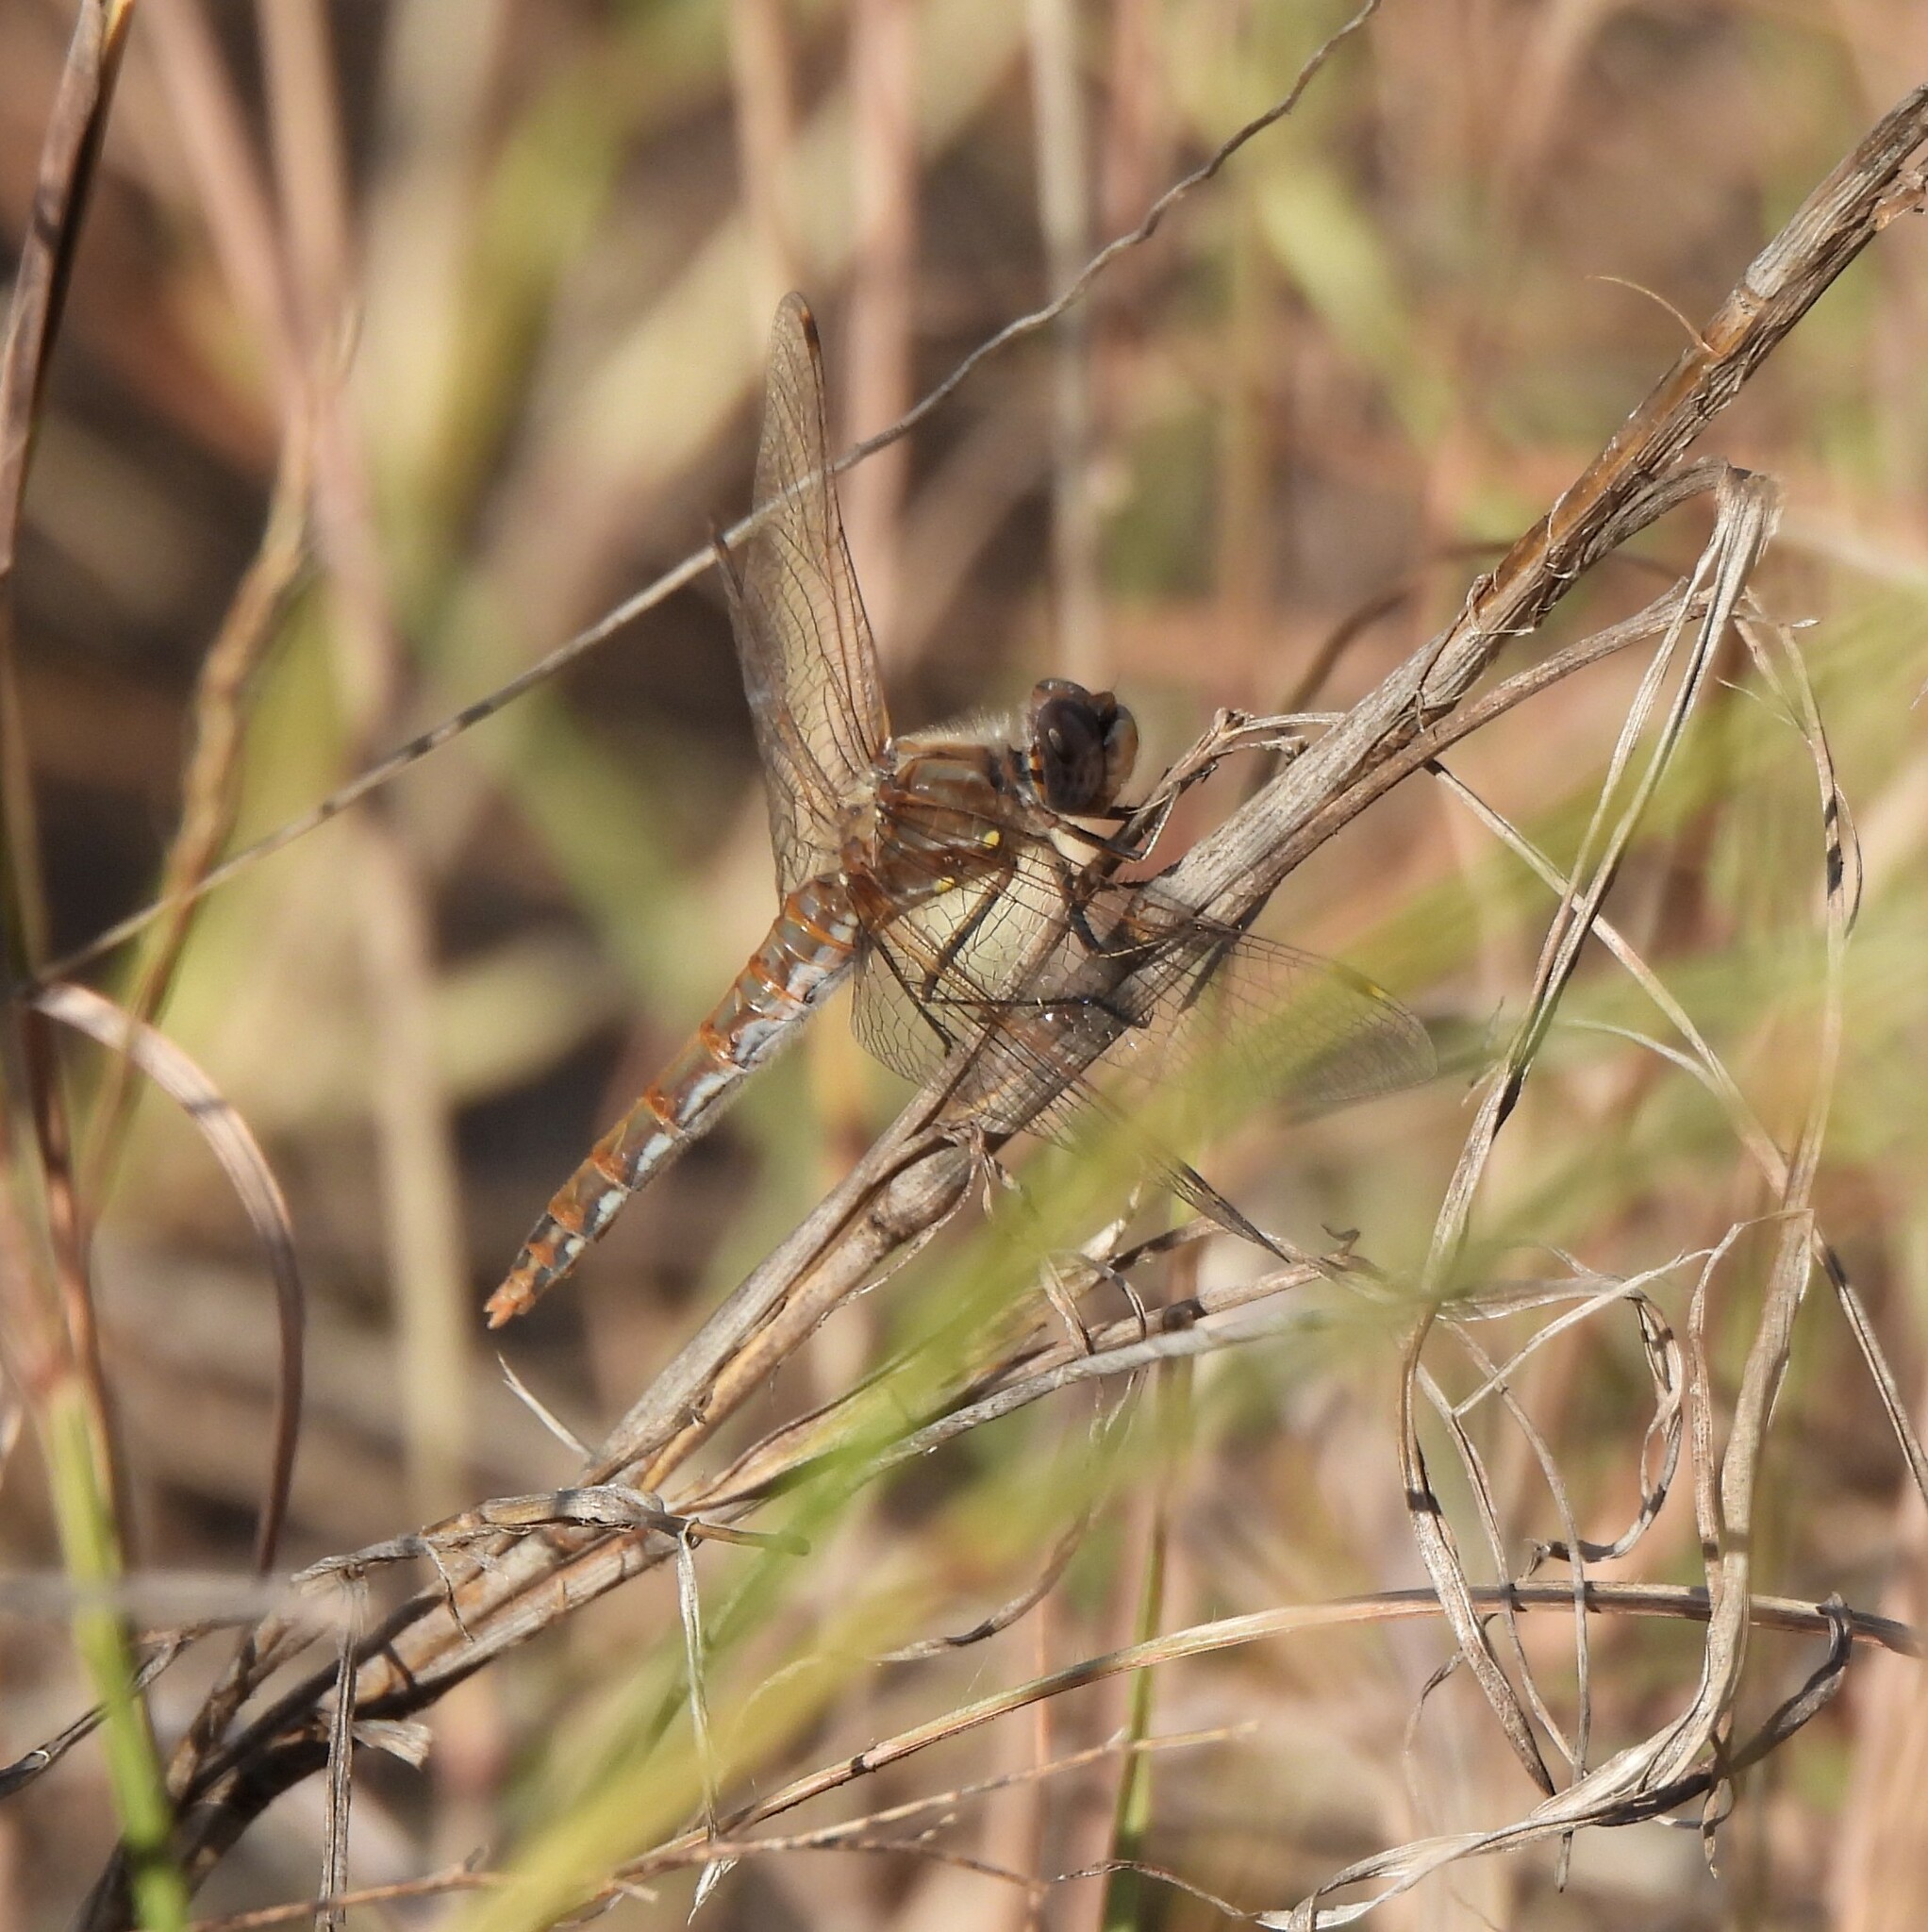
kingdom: Animalia
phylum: Arthropoda
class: Insecta
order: Odonata
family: Libellulidae
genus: Sympetrum
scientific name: Sympetrum corruptum
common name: Variegated meadowhawk
